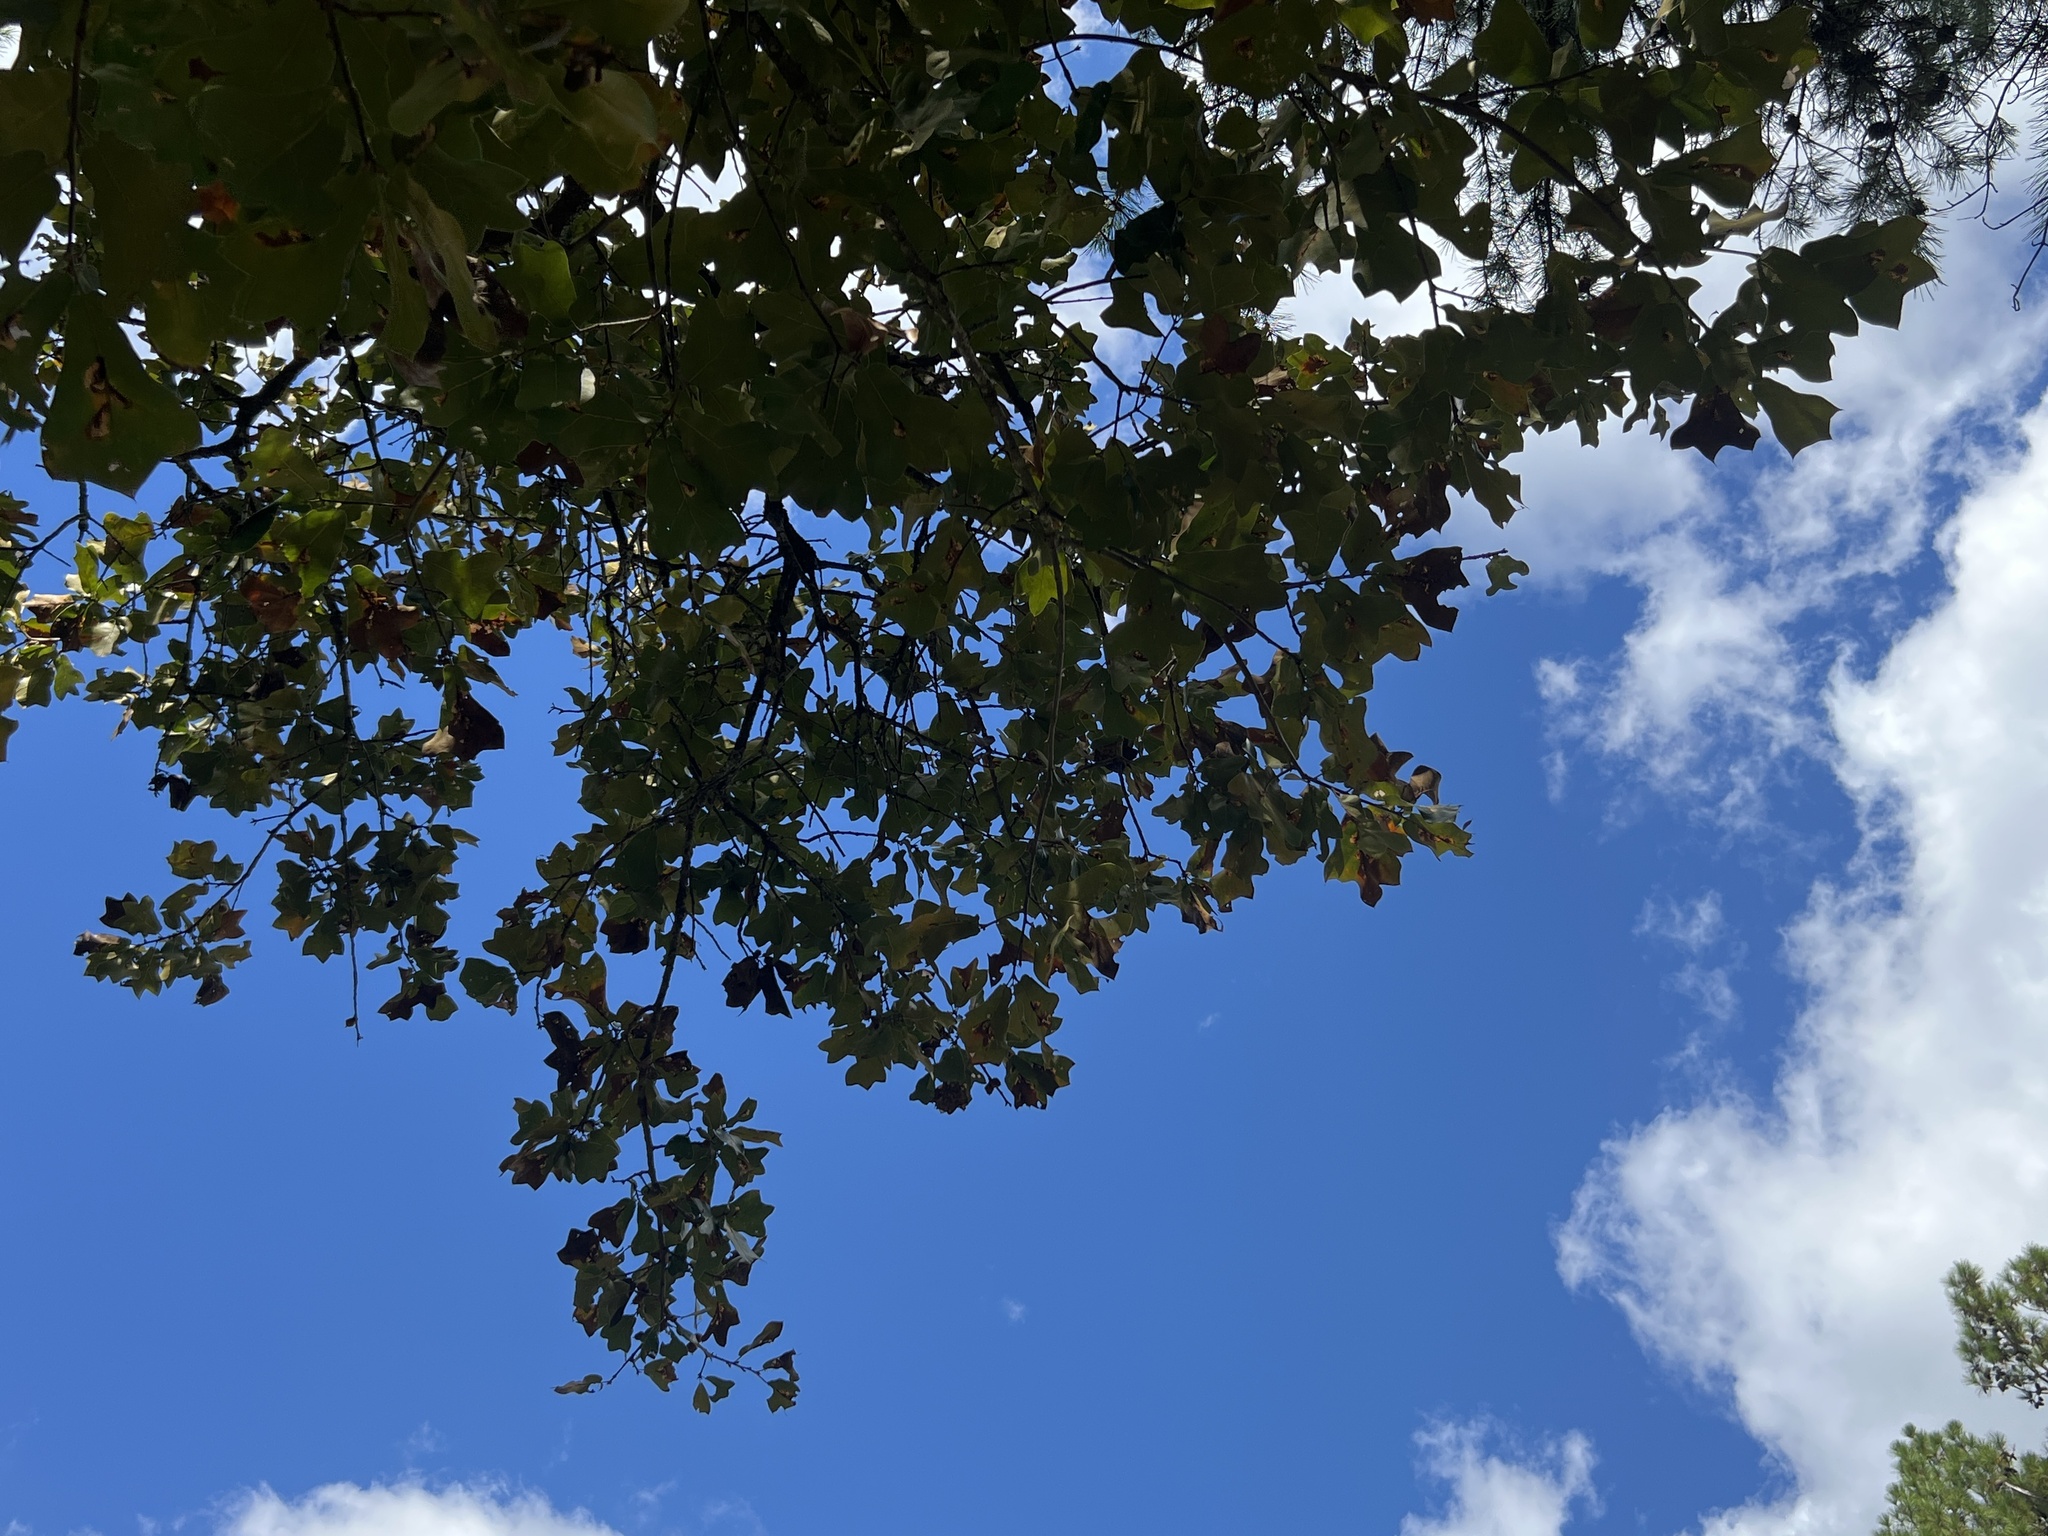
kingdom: Plantae
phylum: Tracheophyta
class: Magnoliopsida
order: Fagales
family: Fagaceae
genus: Quercus
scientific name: Quercus marilandica
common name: Blackjack oak
